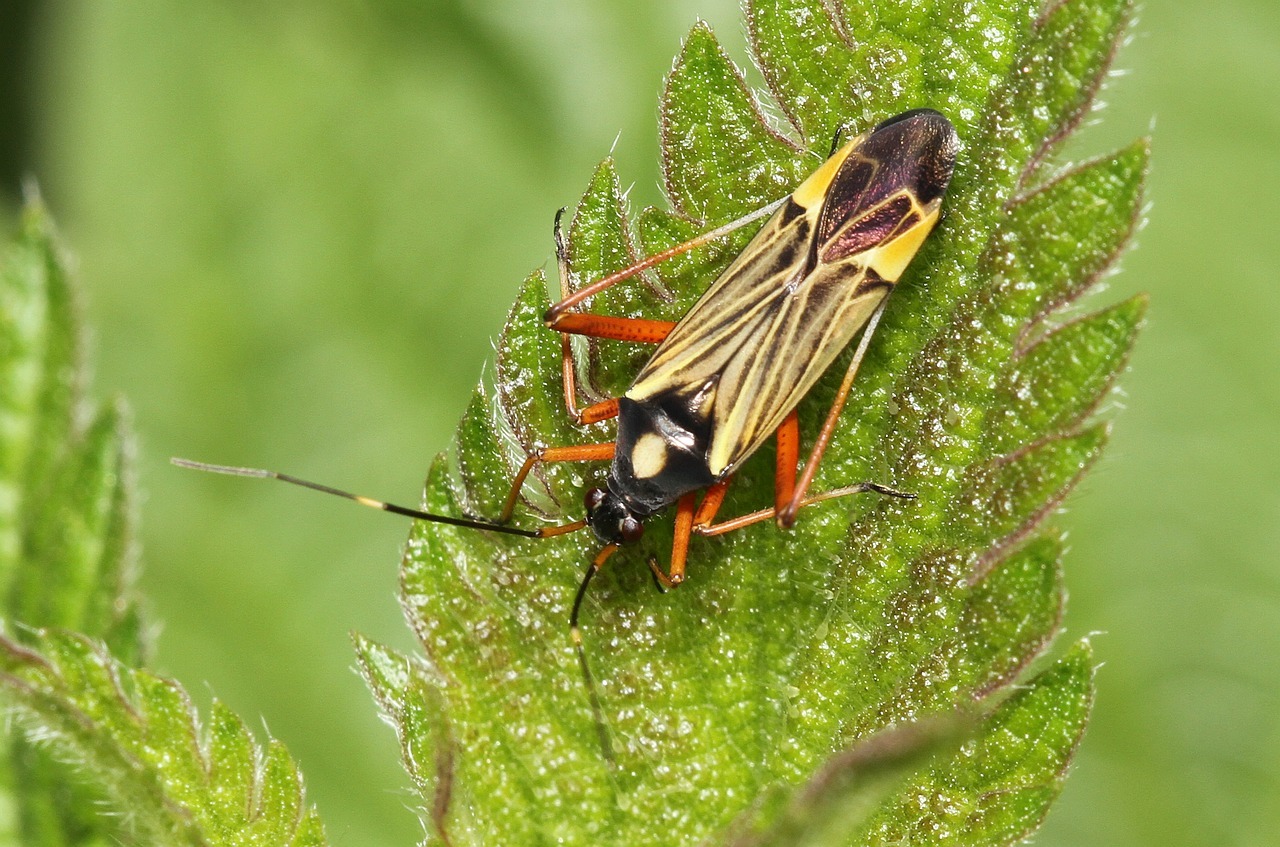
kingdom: Animalia
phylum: Arthropoda
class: Insecta
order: Hemiptera
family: Miridae
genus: Miris
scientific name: Miris striatus
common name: Fine streaked bugkin
